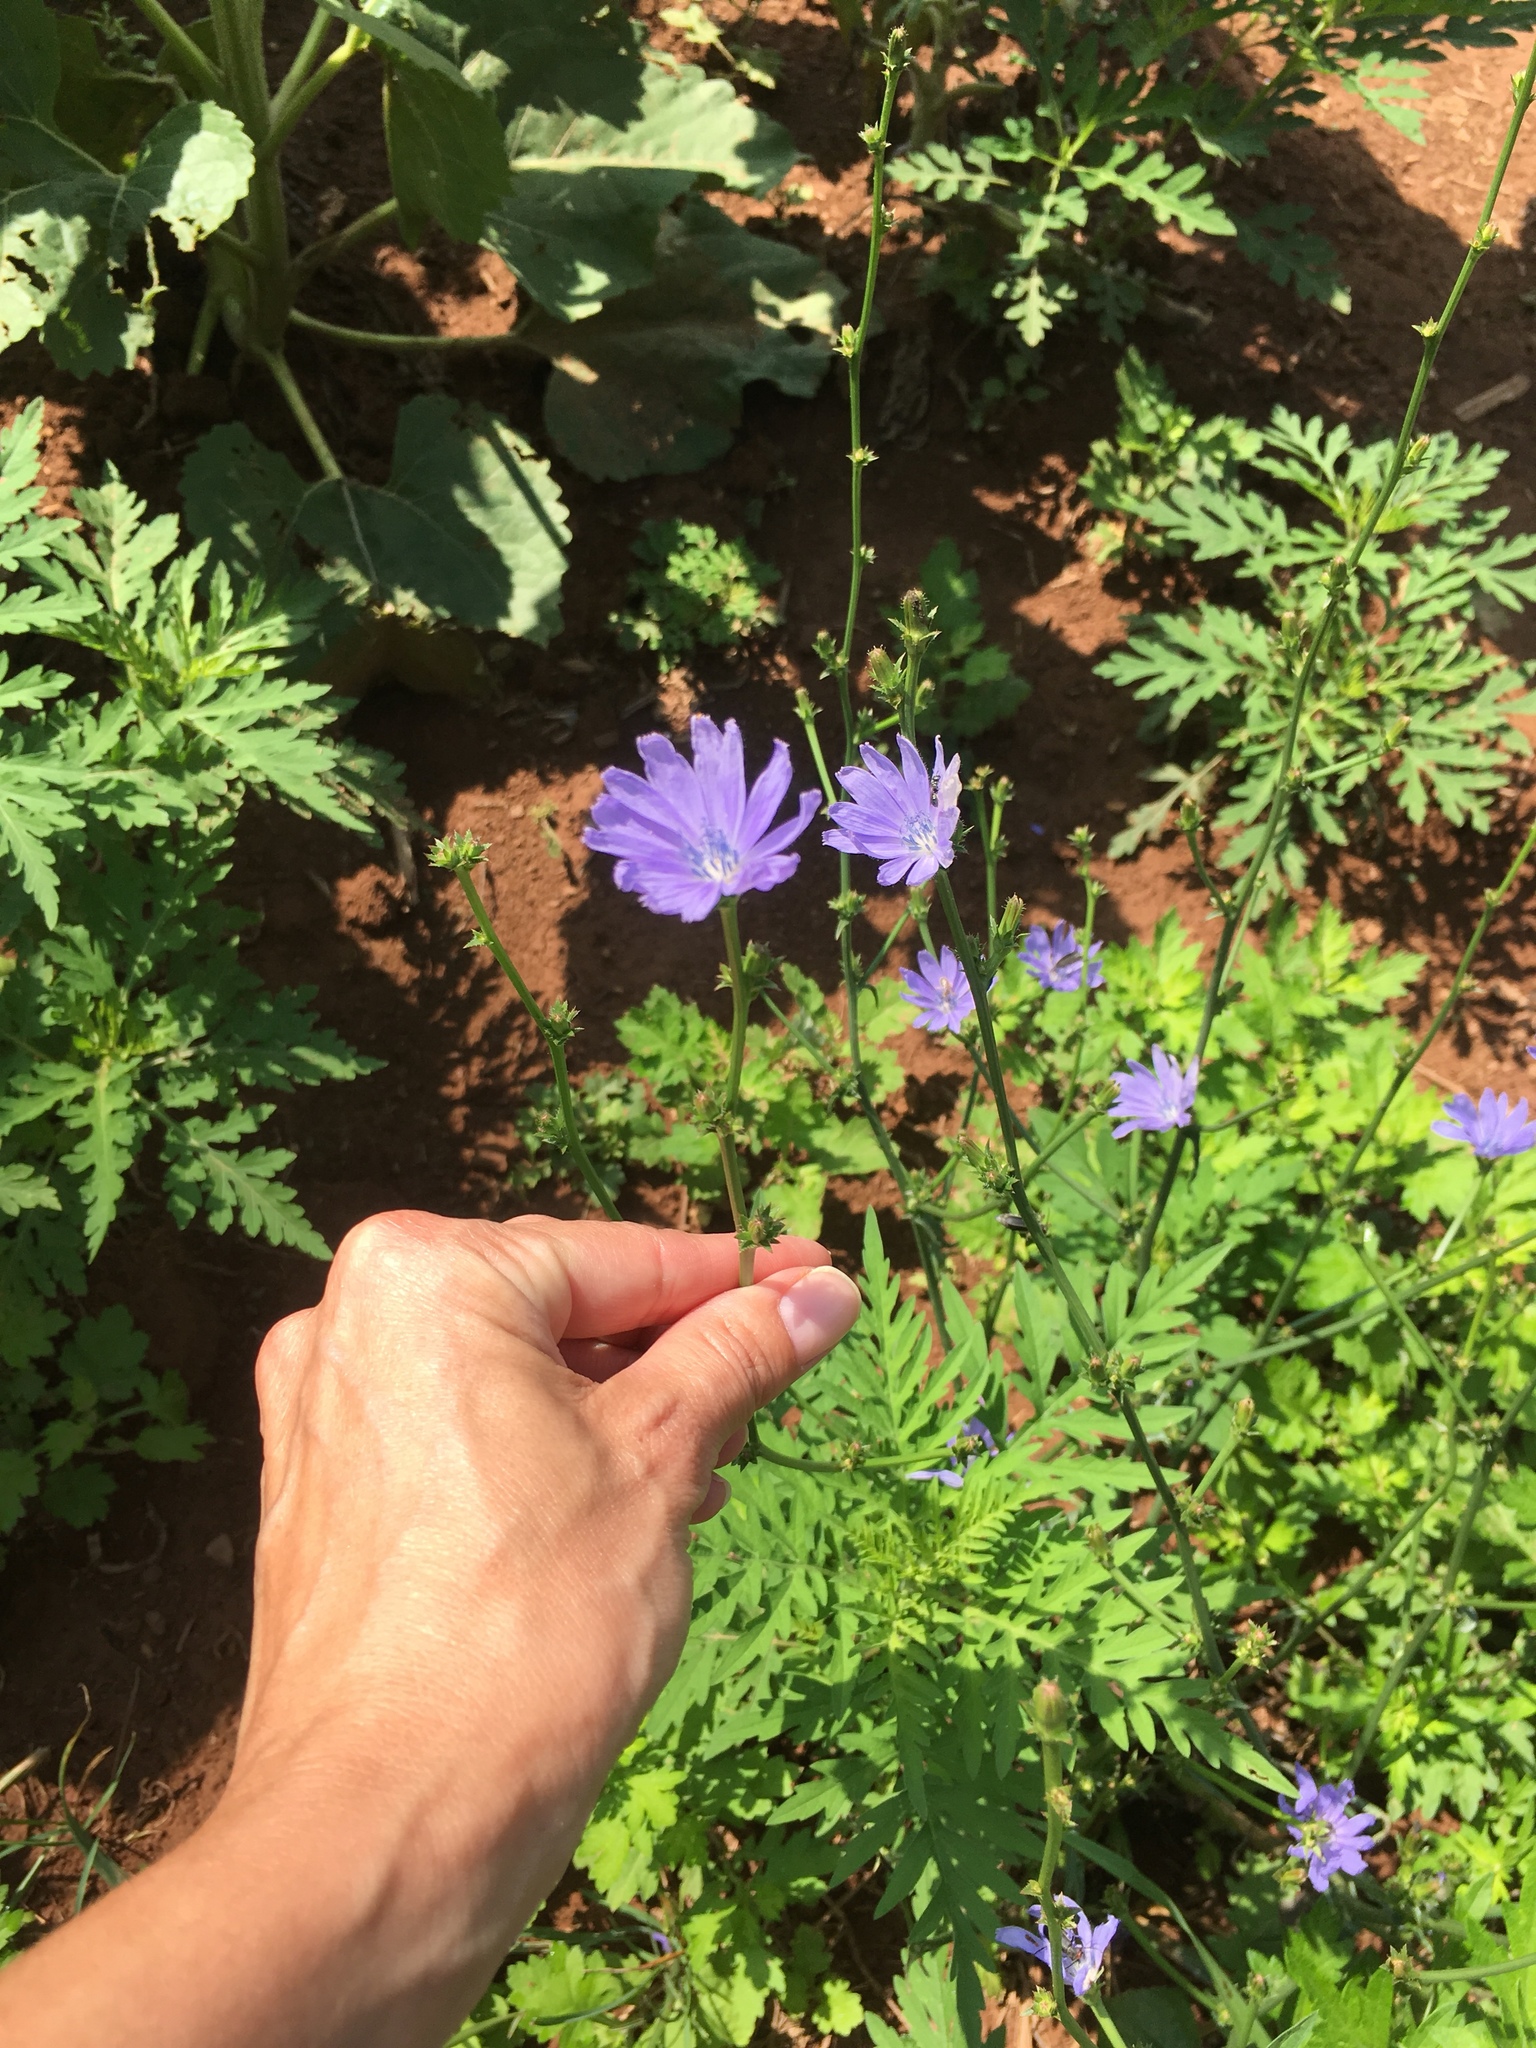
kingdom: Plantae
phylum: Tracheophyta
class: Magnoliopsida
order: Asterales
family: Asteraceae
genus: Cichorium
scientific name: Cichorium intybus
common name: Chicory
